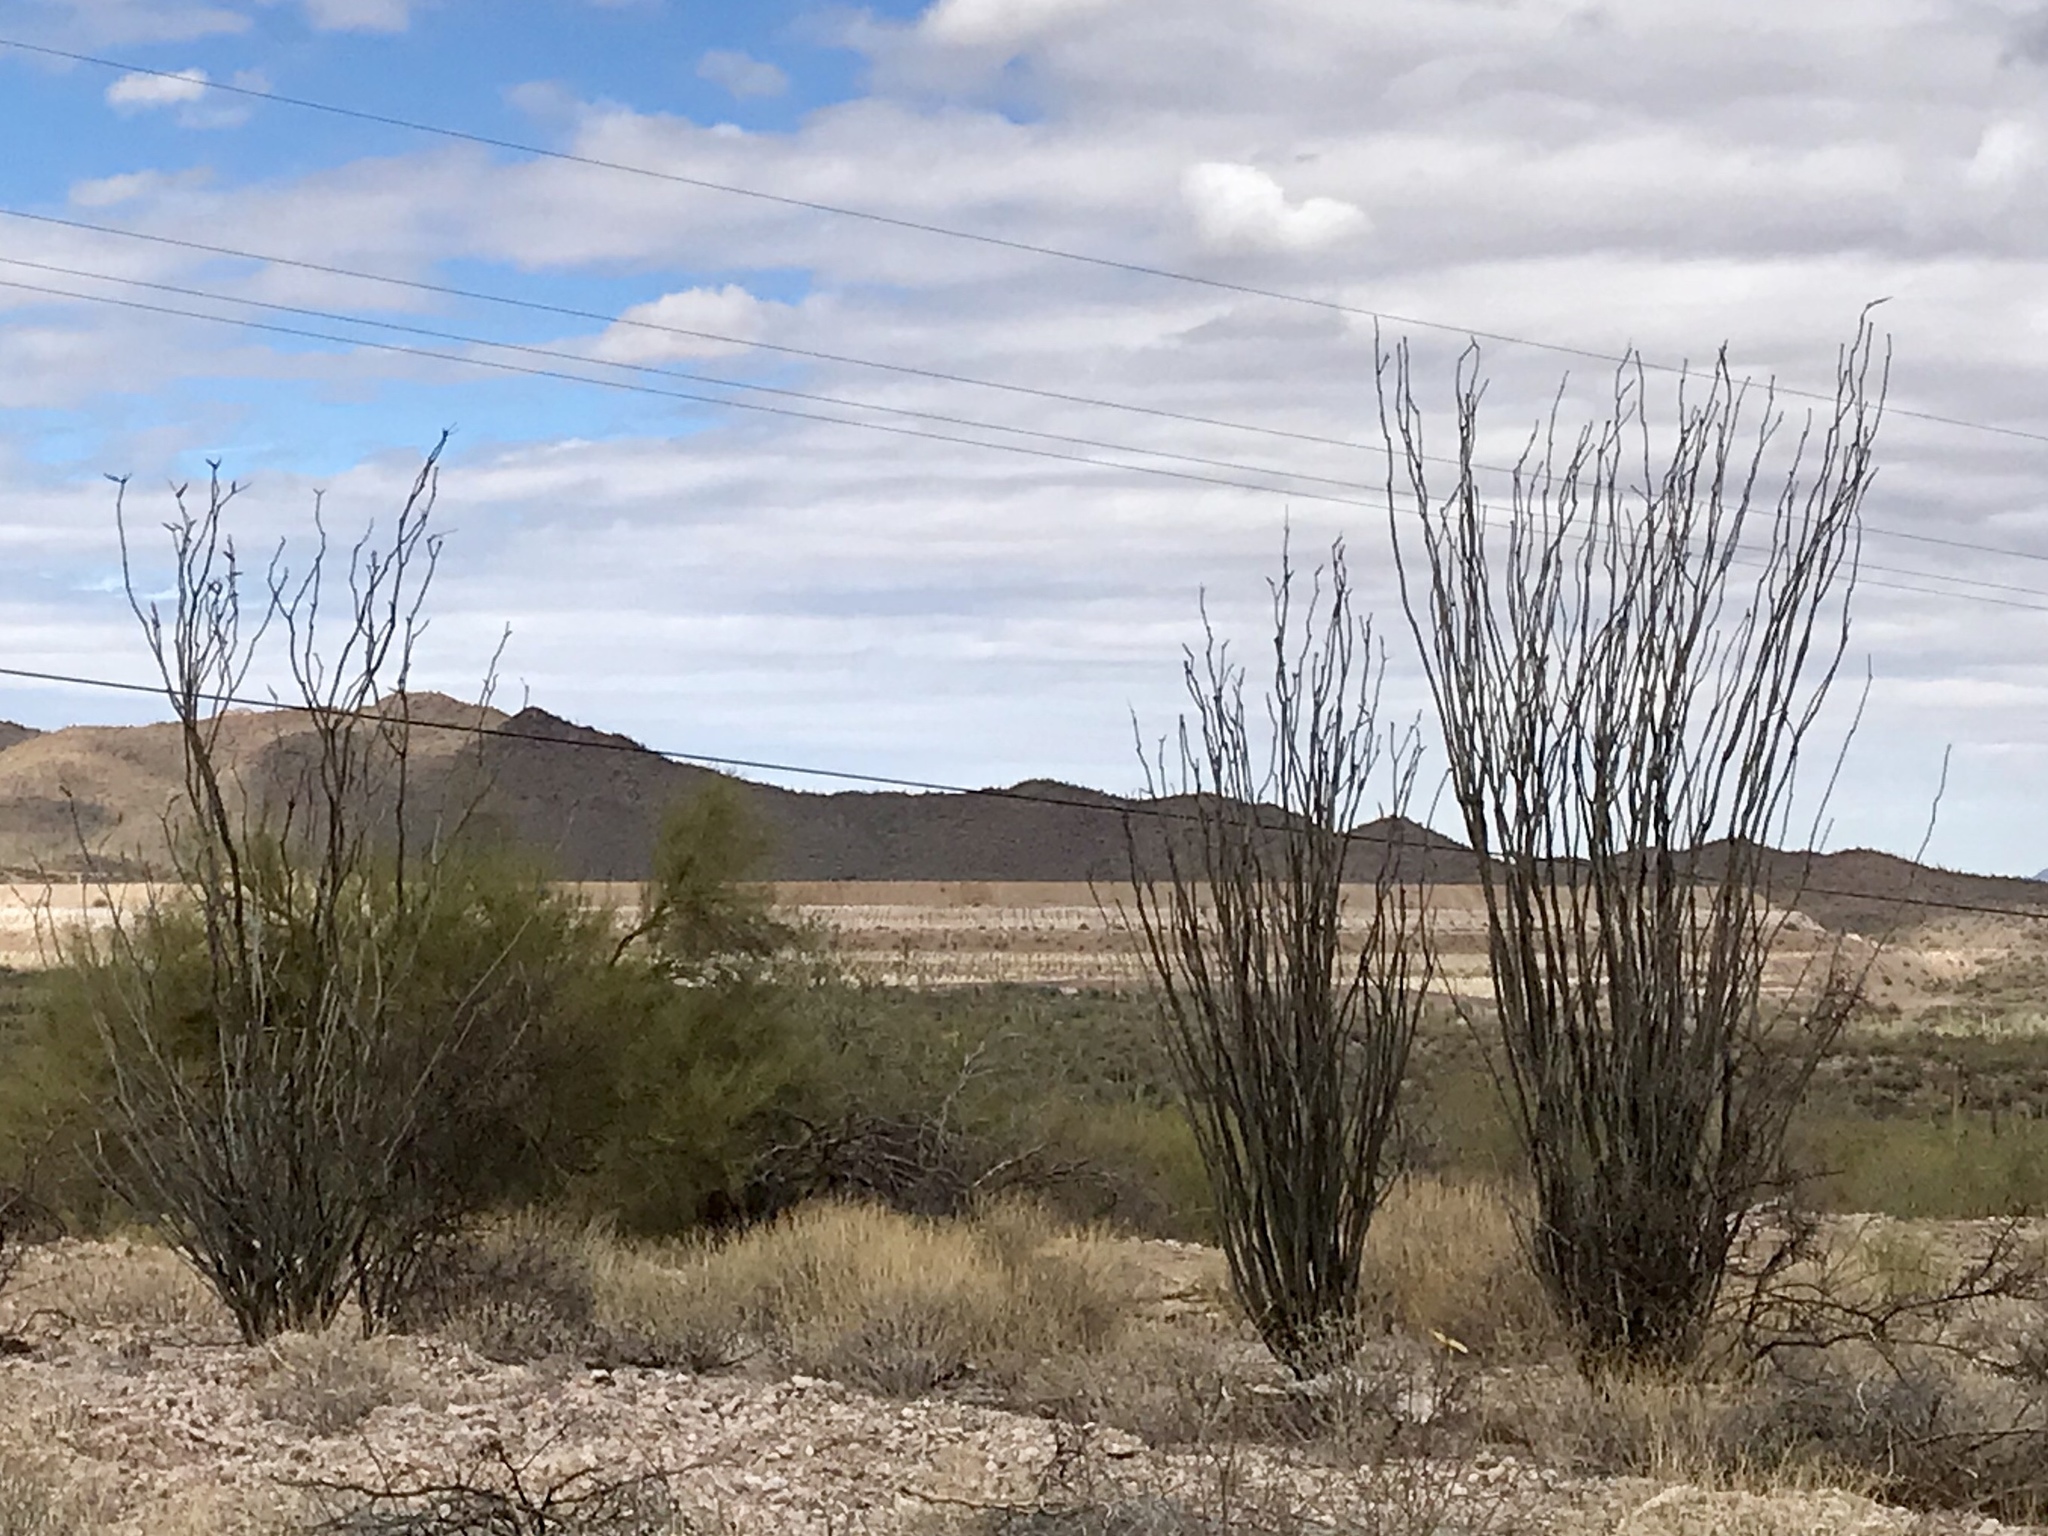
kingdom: Plantae
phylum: Tracheophyta
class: Magnoliopsida
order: Ericales
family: Fouquieriaceae
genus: Fouquieria
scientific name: Fouquieria splendens
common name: Vine-cactus
